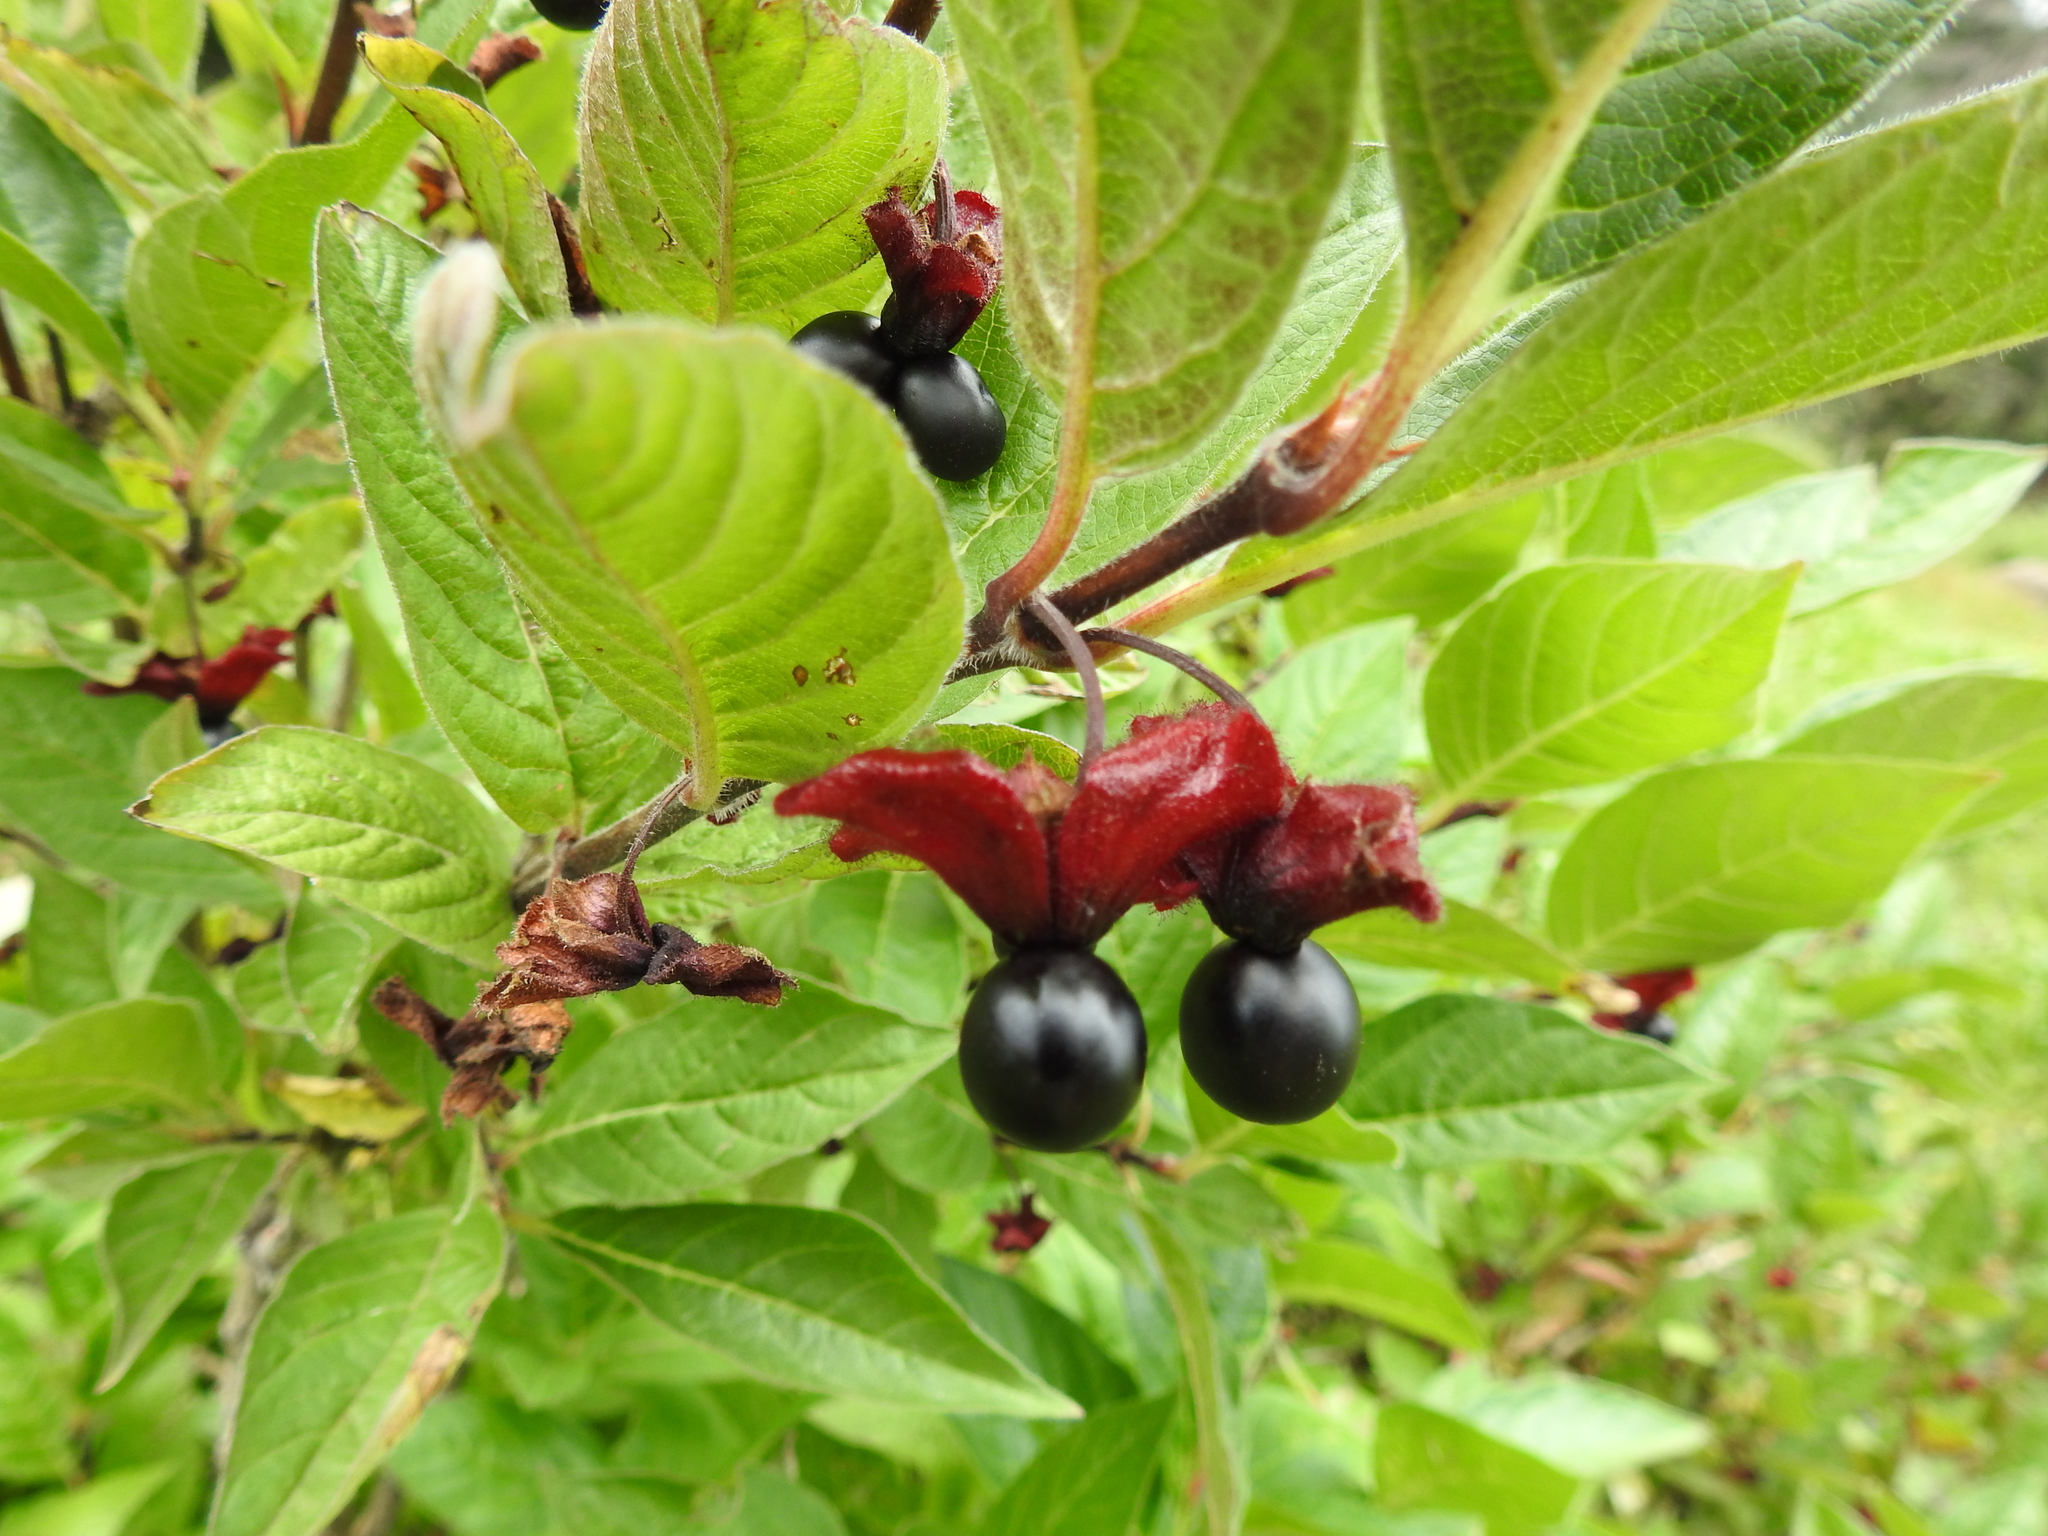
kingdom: Plantae
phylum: Tracheophyta
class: Magnoliopsida
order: Dipsacales
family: Caprifoliaceae
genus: Lonicera
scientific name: Lonicera involucrata
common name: Californian honeysuckle
